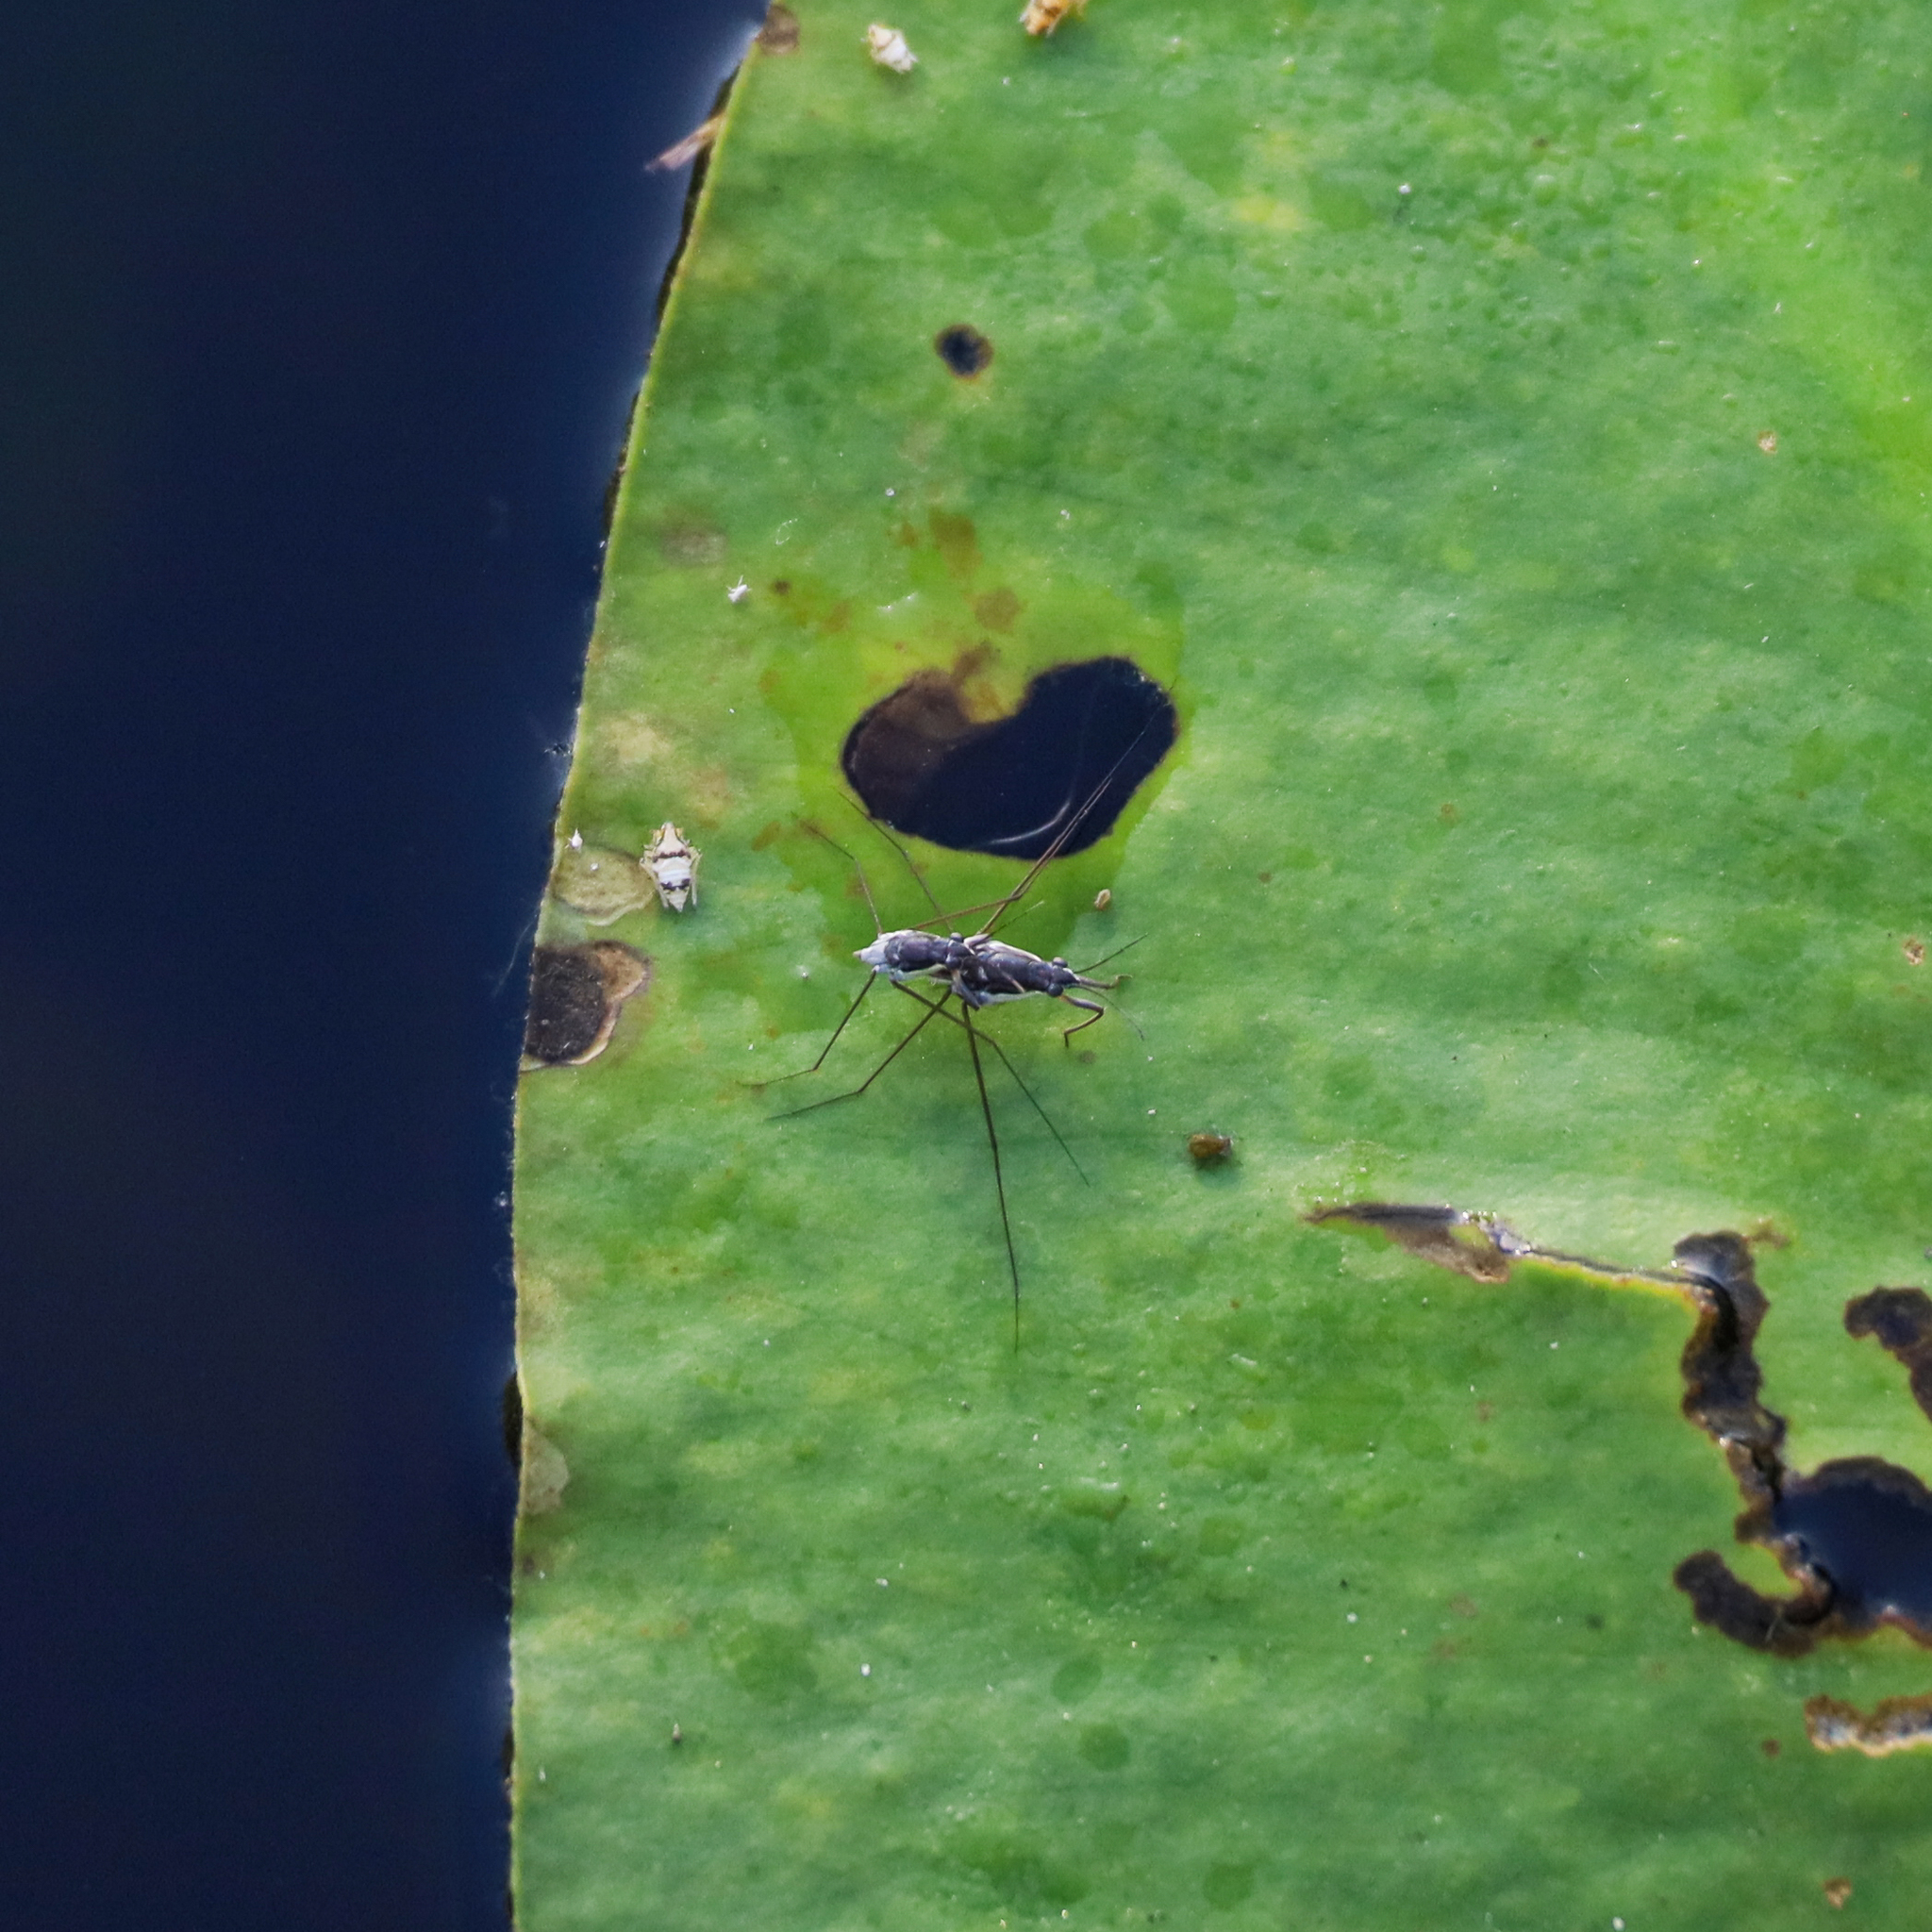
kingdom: Animalia
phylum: Arthropoda
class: Insecta
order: Hemiptera
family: Gerridae
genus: Neogerris
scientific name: Neogerris hesione
